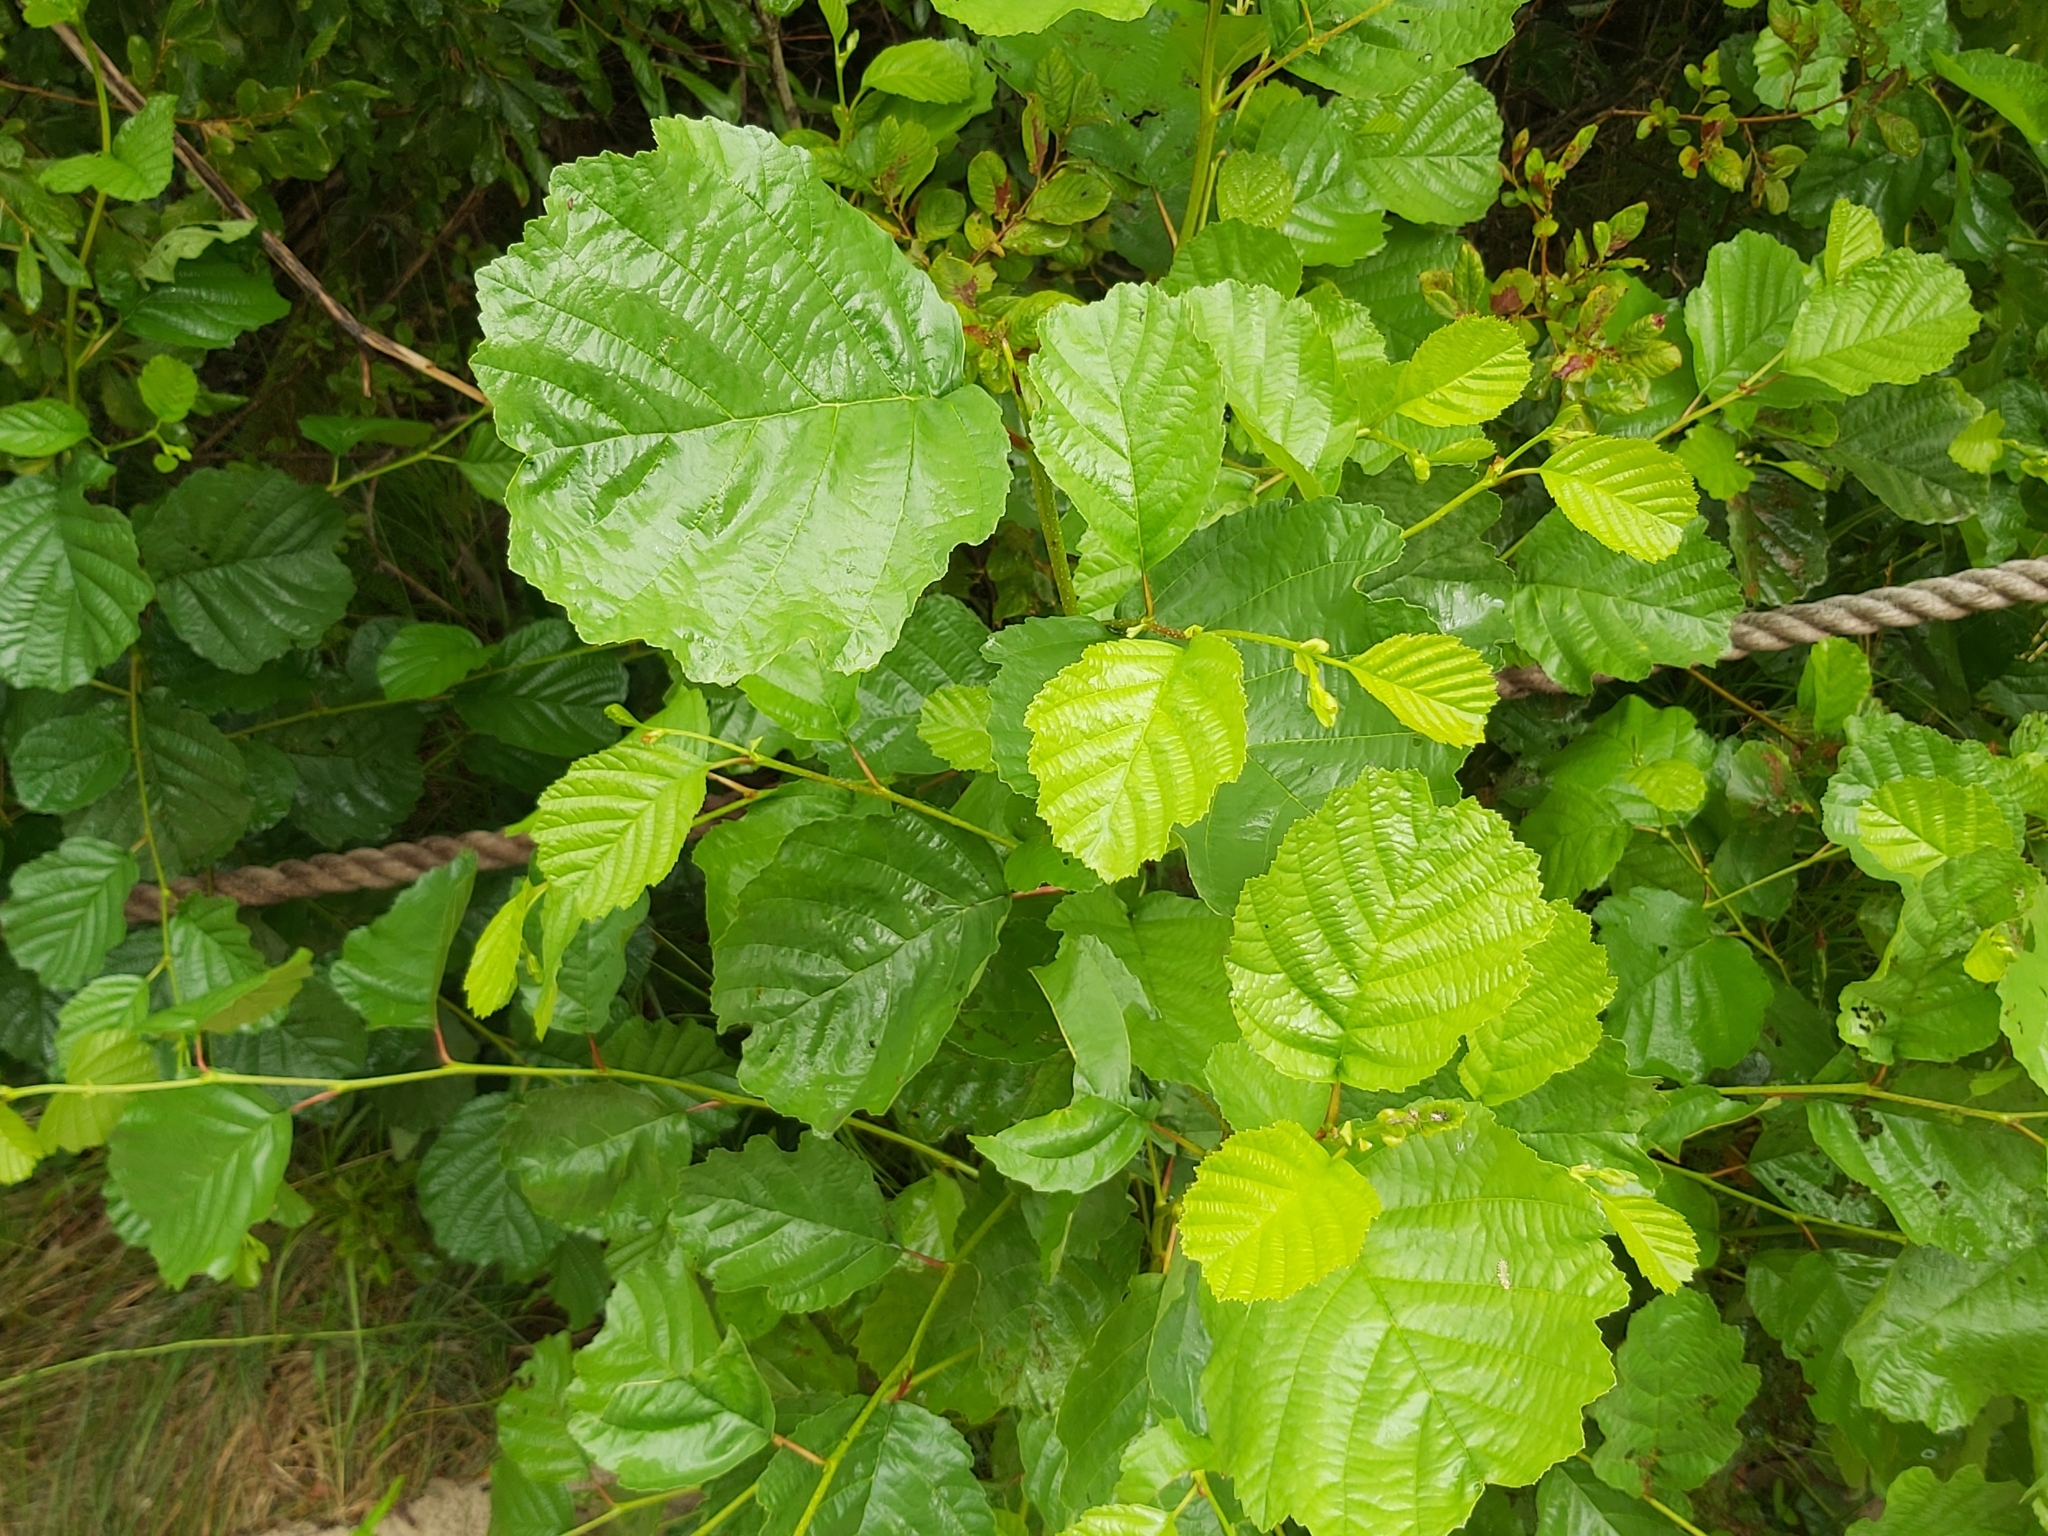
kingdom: Plantae
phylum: Tracheophyta
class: Magnoliopsida
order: Fagales
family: Betulaceae
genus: Alnus
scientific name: Alnus glutinosa
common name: Black alder
